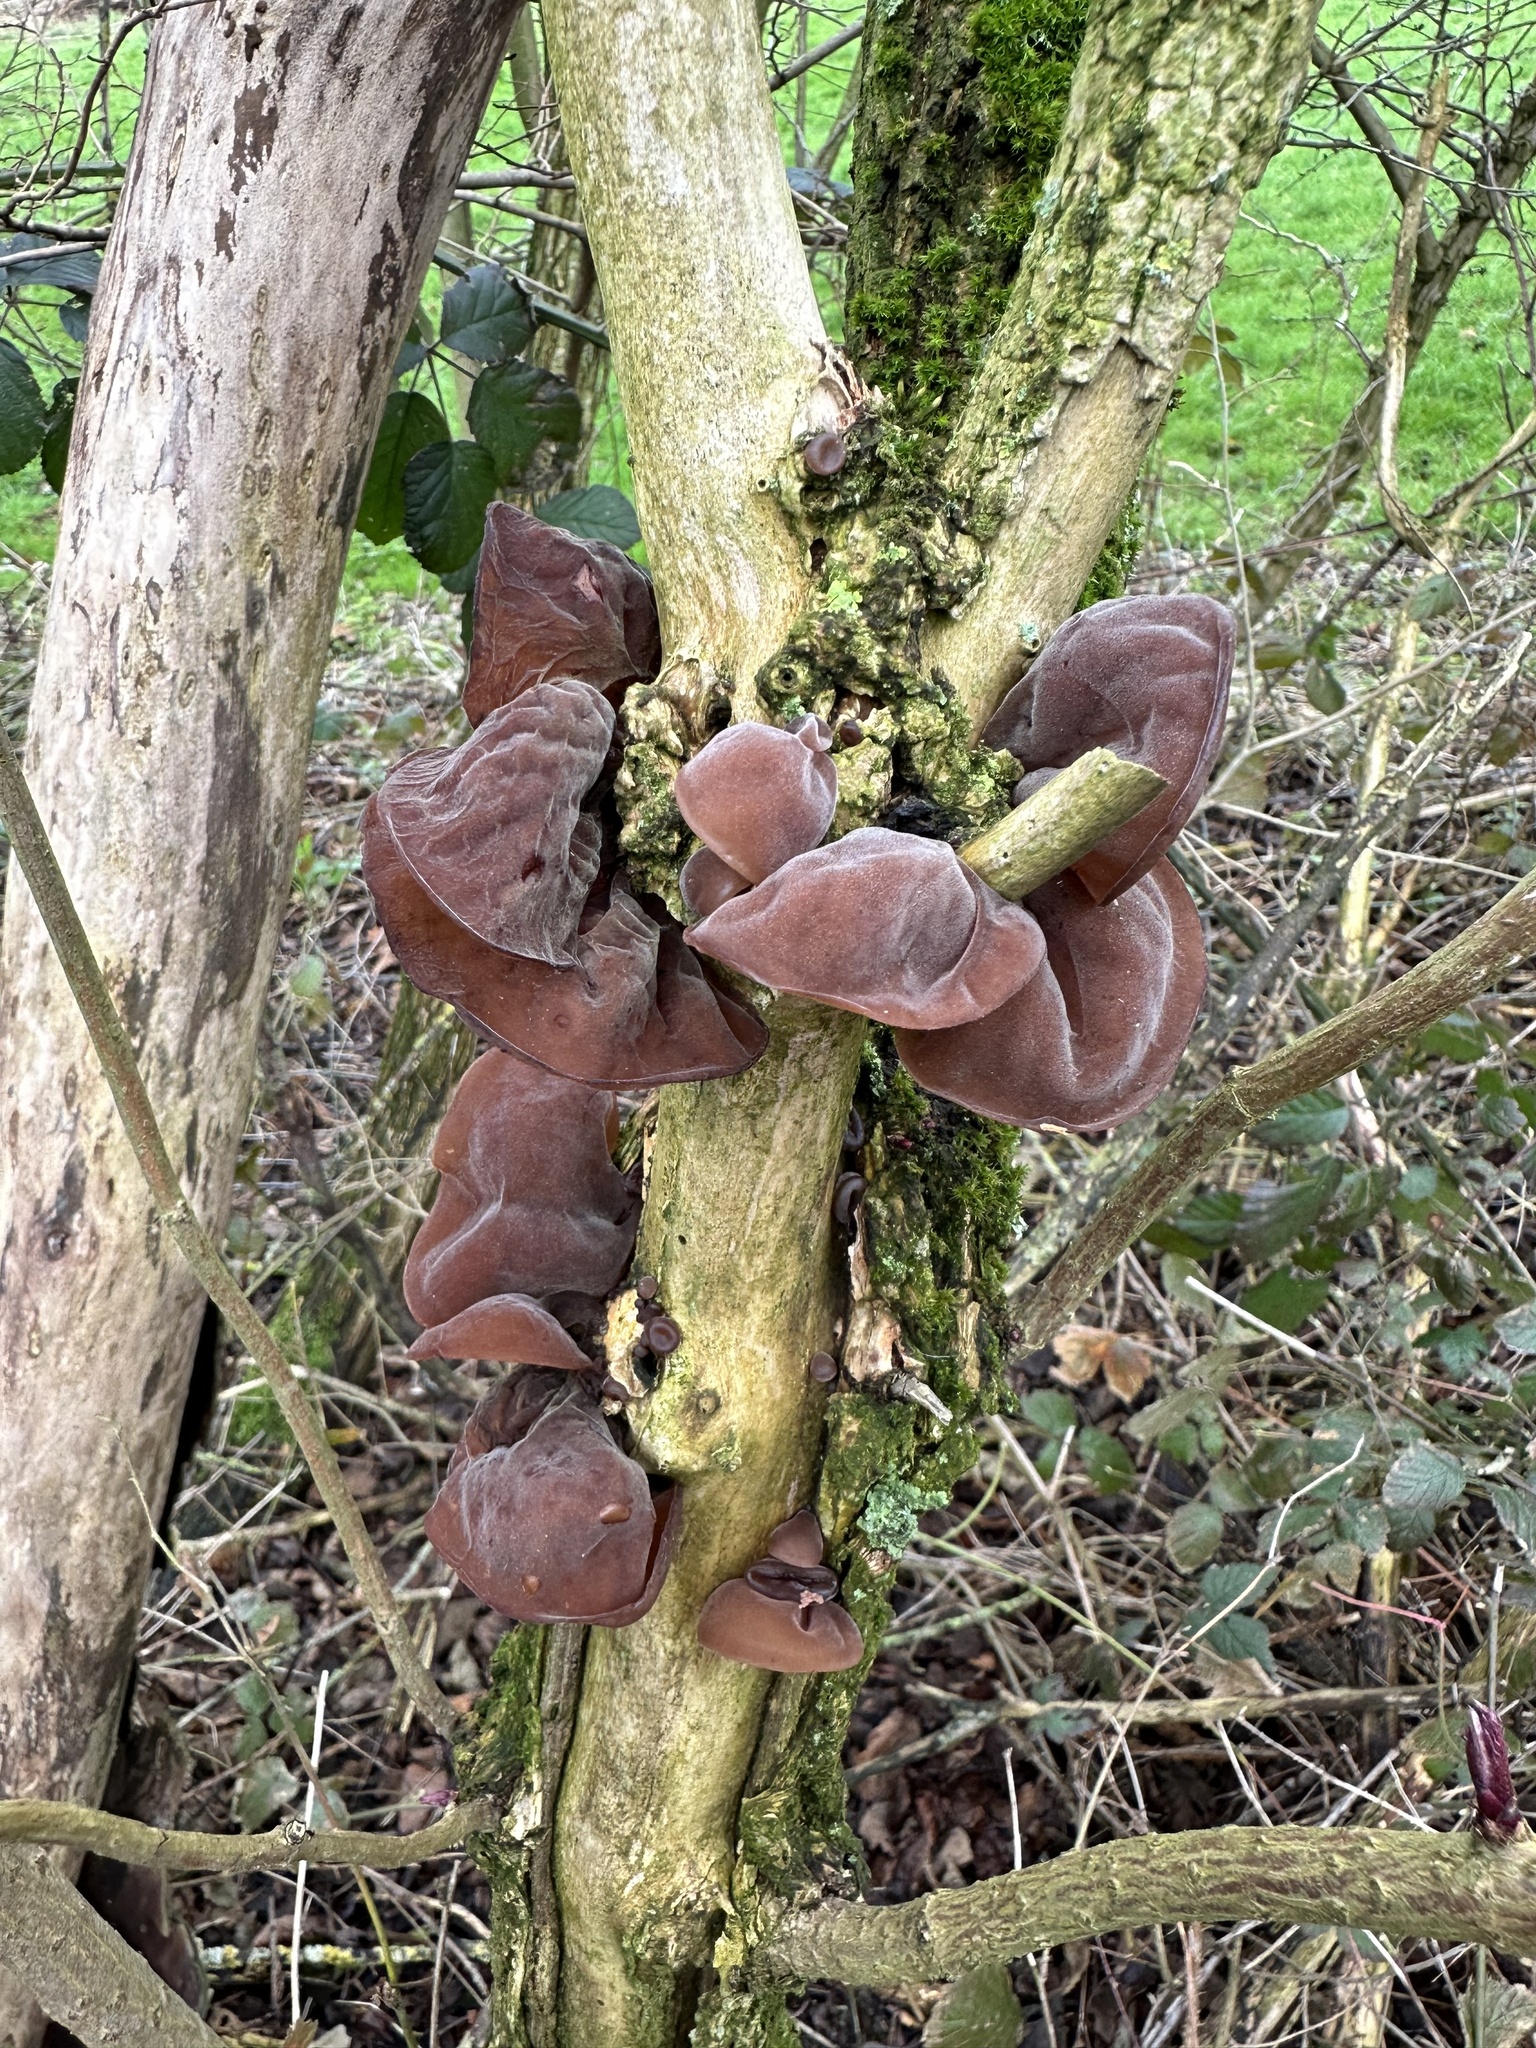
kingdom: Fungi
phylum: Basidiomycota
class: Agaricomycetes
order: Auriculariales
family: Auriculariaceae
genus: Auricularia
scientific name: Auricularia auricula-judae
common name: Jelly ear
